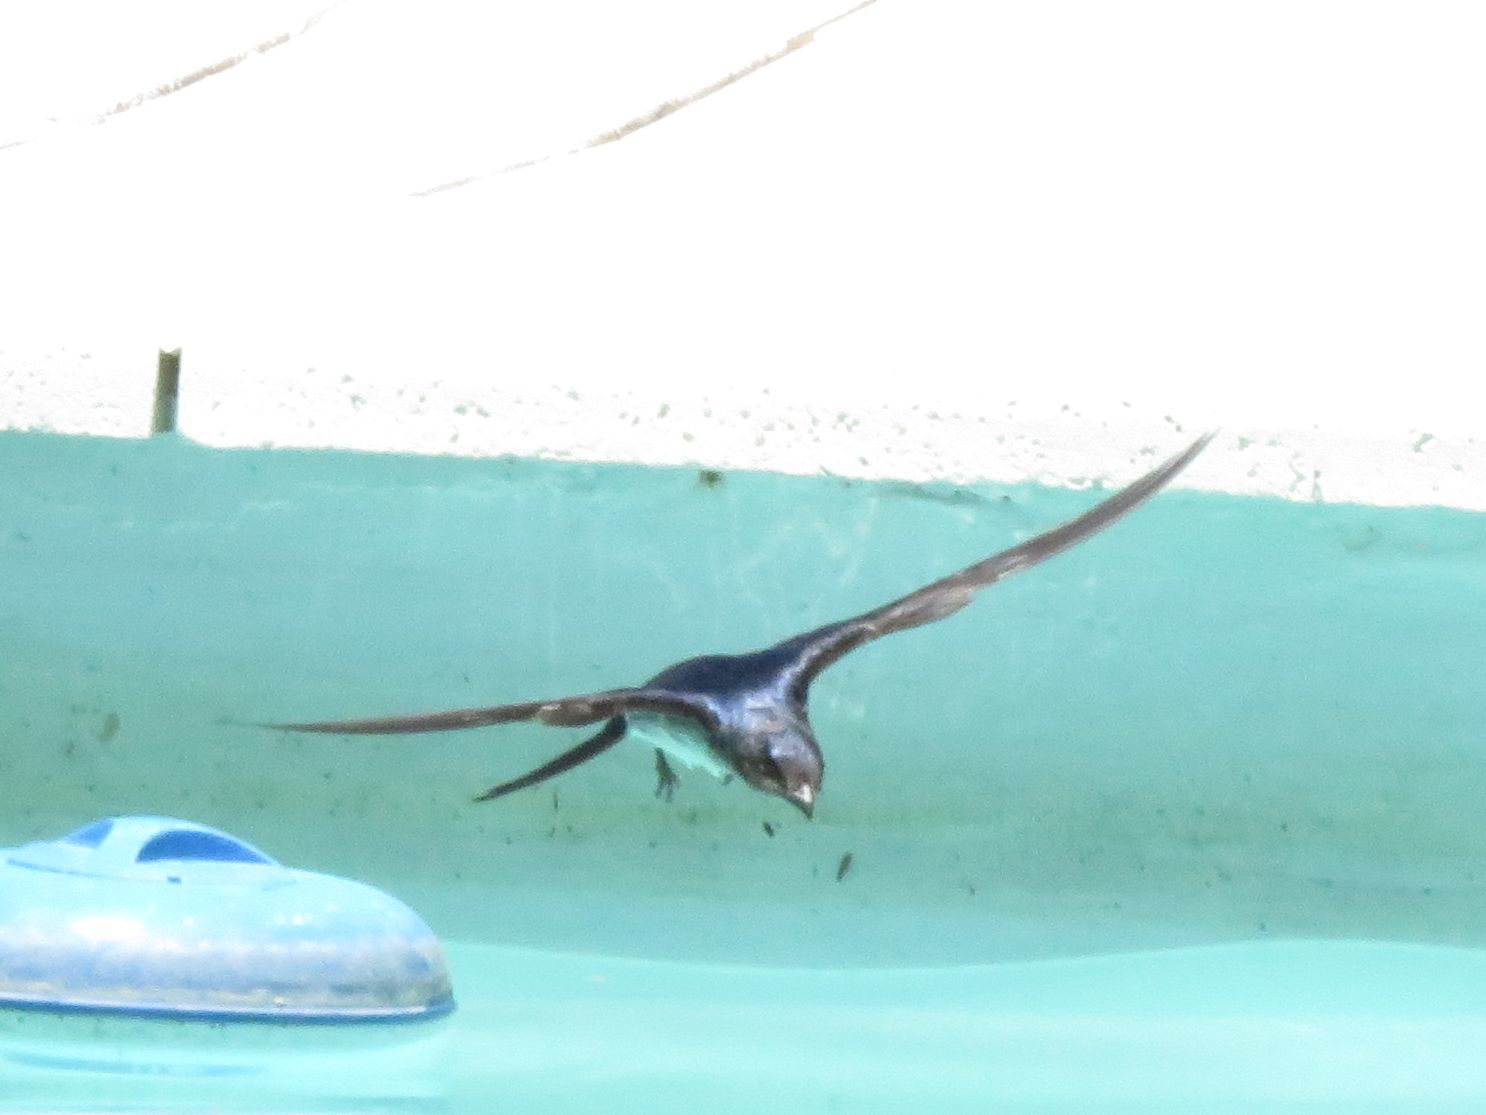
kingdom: Animalia
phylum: Chordata
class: Aves
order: Passeriformes
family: Hirundinidae
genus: Progne
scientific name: Progne chalybea
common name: Grey-breasted martin
